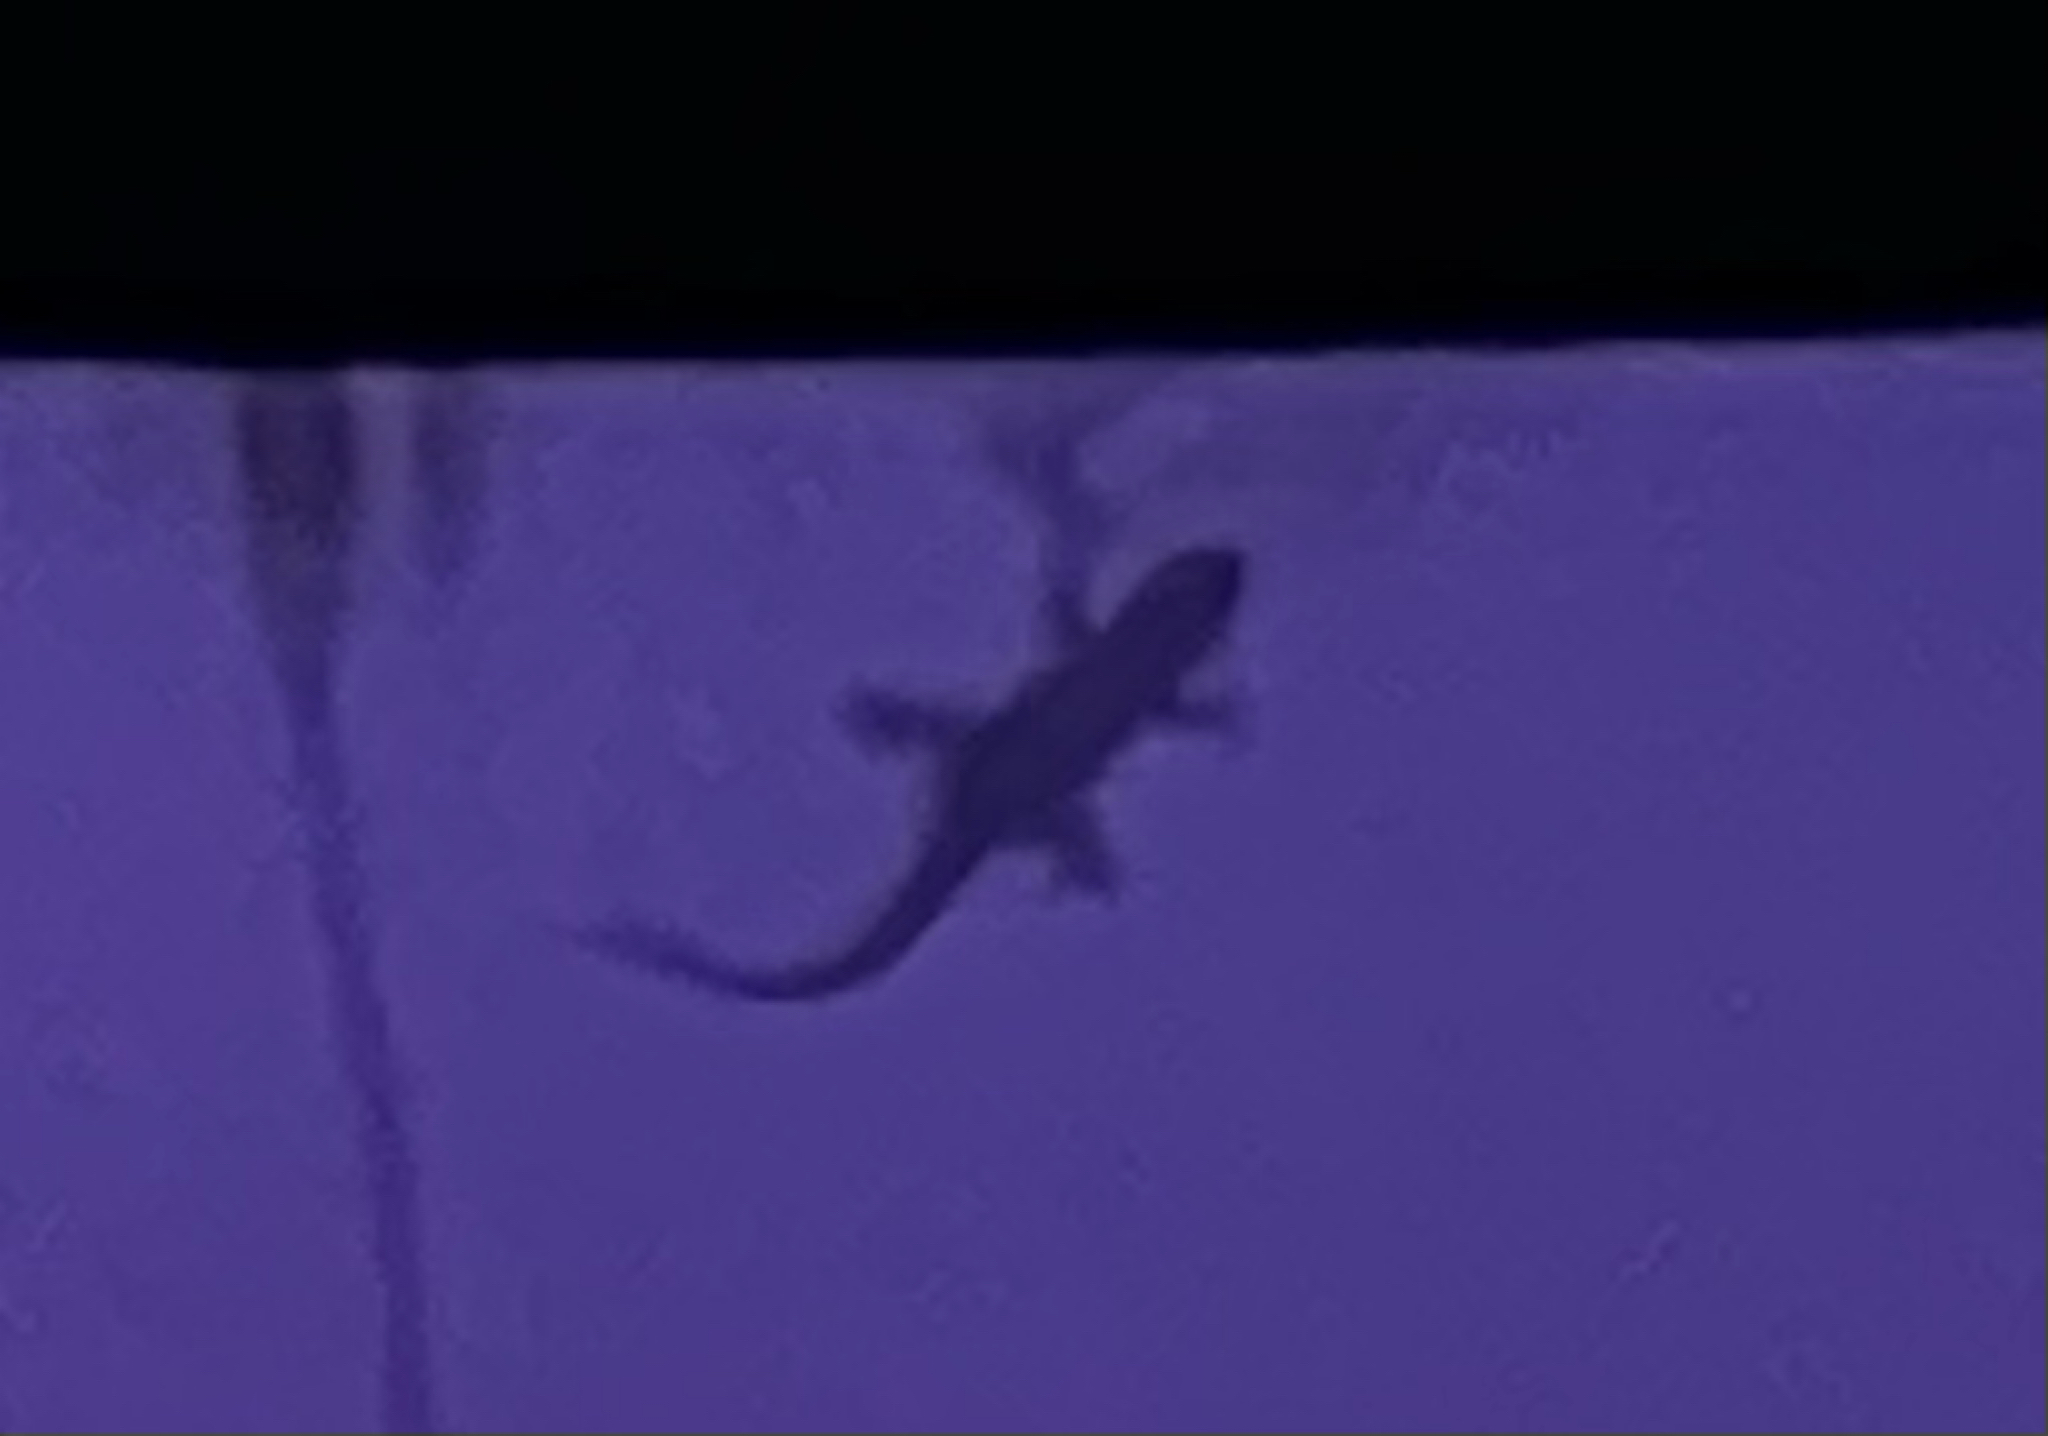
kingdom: Animalia
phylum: Chordata
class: Squamata
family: Phyllodactylidae
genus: Tarentola
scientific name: Tarentola mauritanica
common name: Moorish gecko
